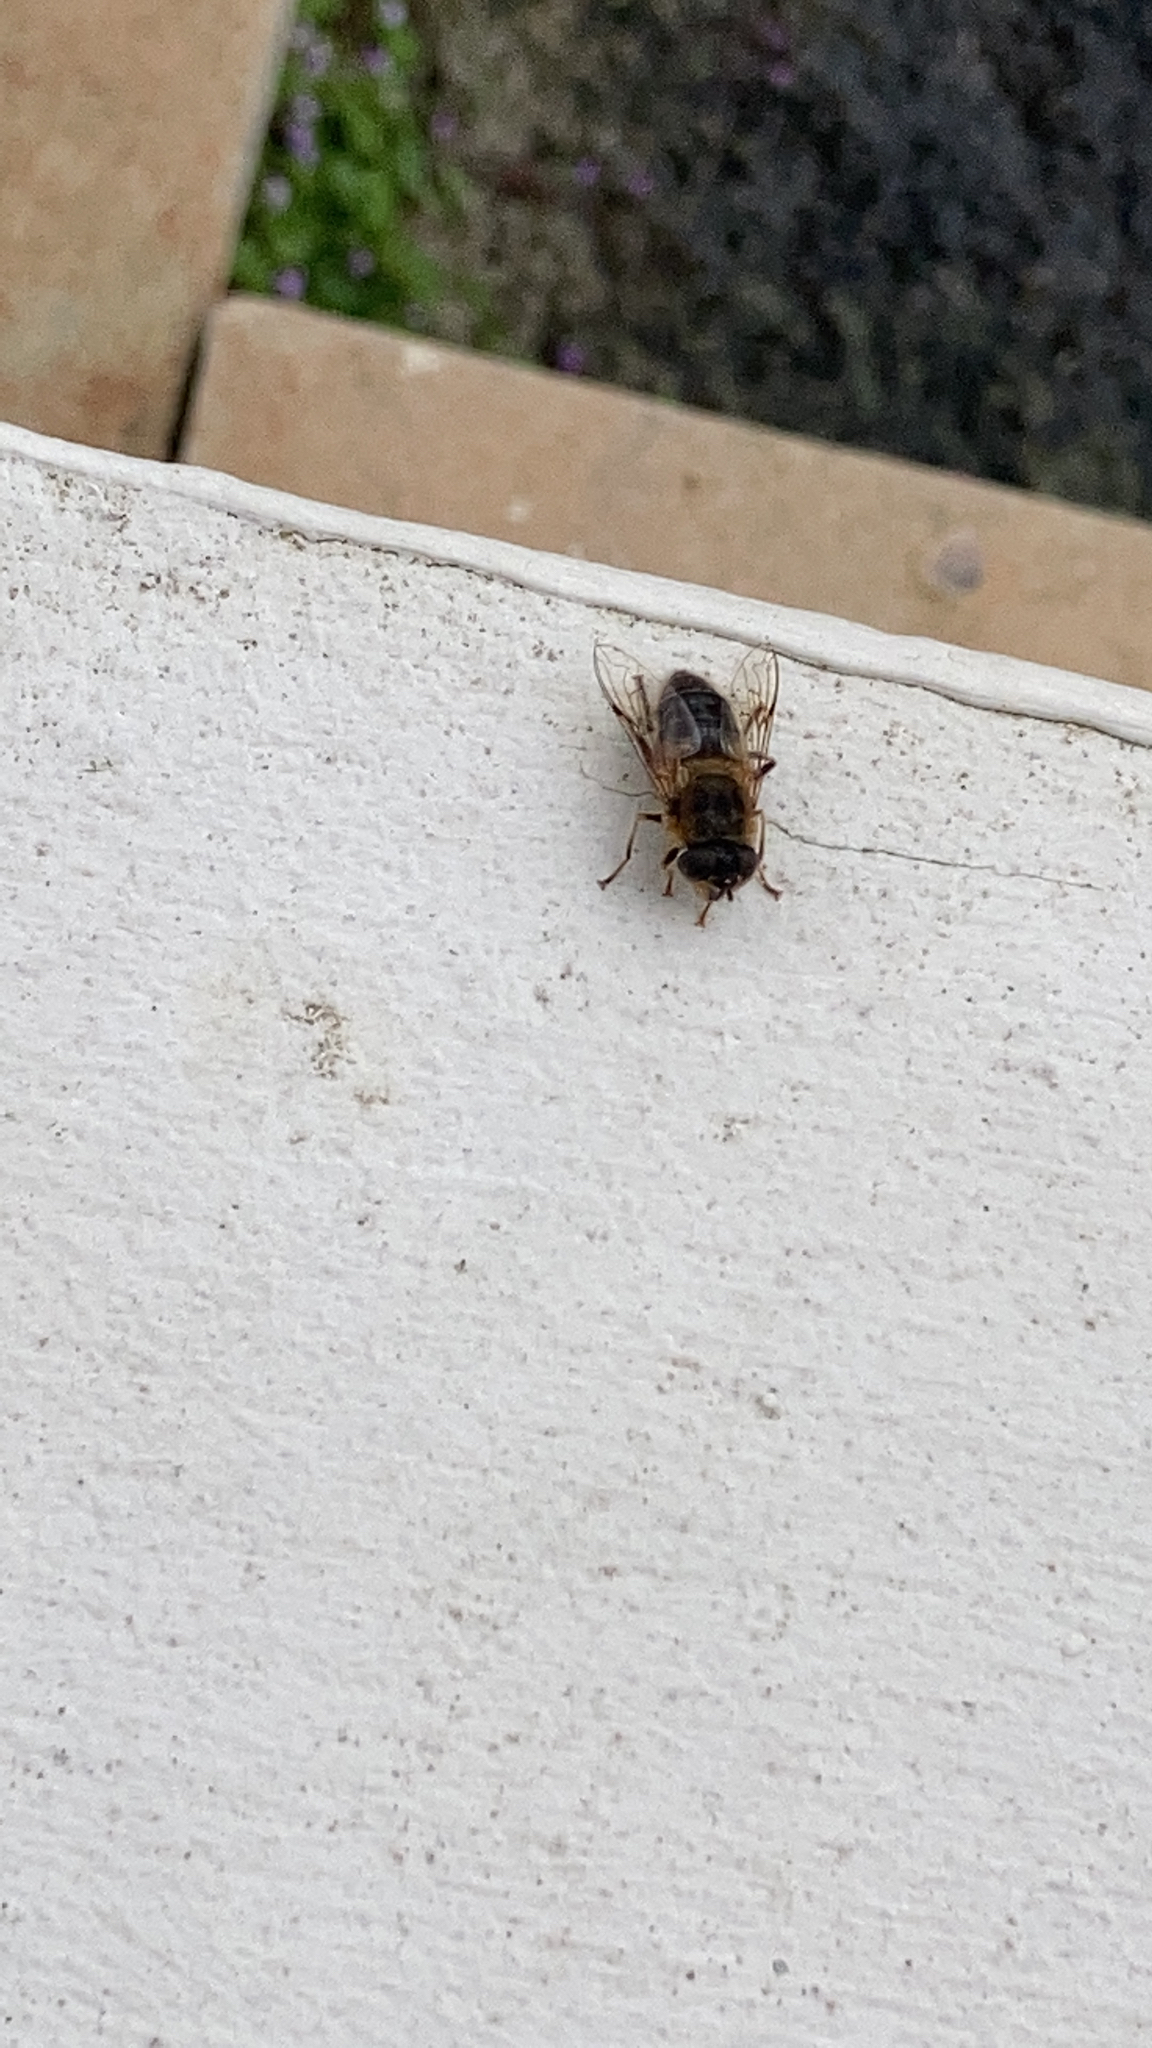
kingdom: Animalia
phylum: Arthropoda
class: Insecta
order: Diptera
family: Syrphidae
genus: Eristalis
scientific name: Eristalis pertinax
